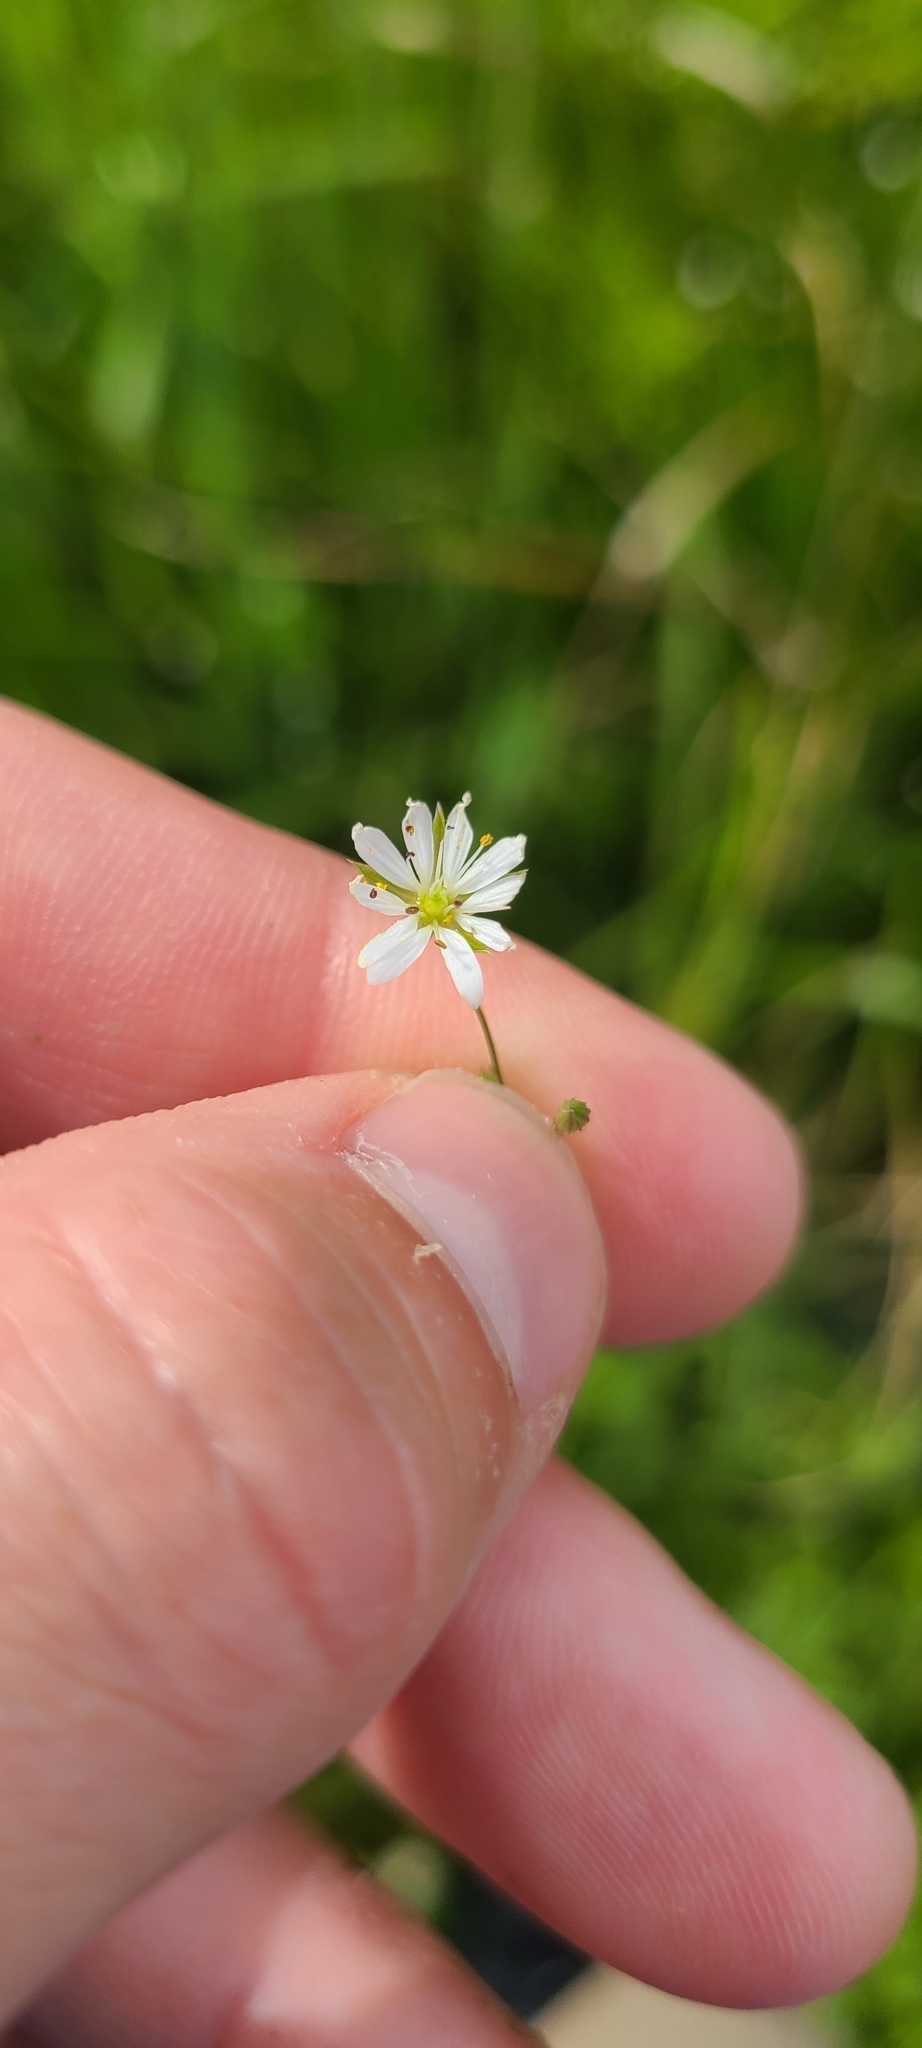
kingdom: Plantae
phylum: Tracheophyta
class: Magnoliopsida
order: Caryophyllales
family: Caryophyllaceae
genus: Stellaria
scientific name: Stellaria graminea
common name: Grass-like starwort
